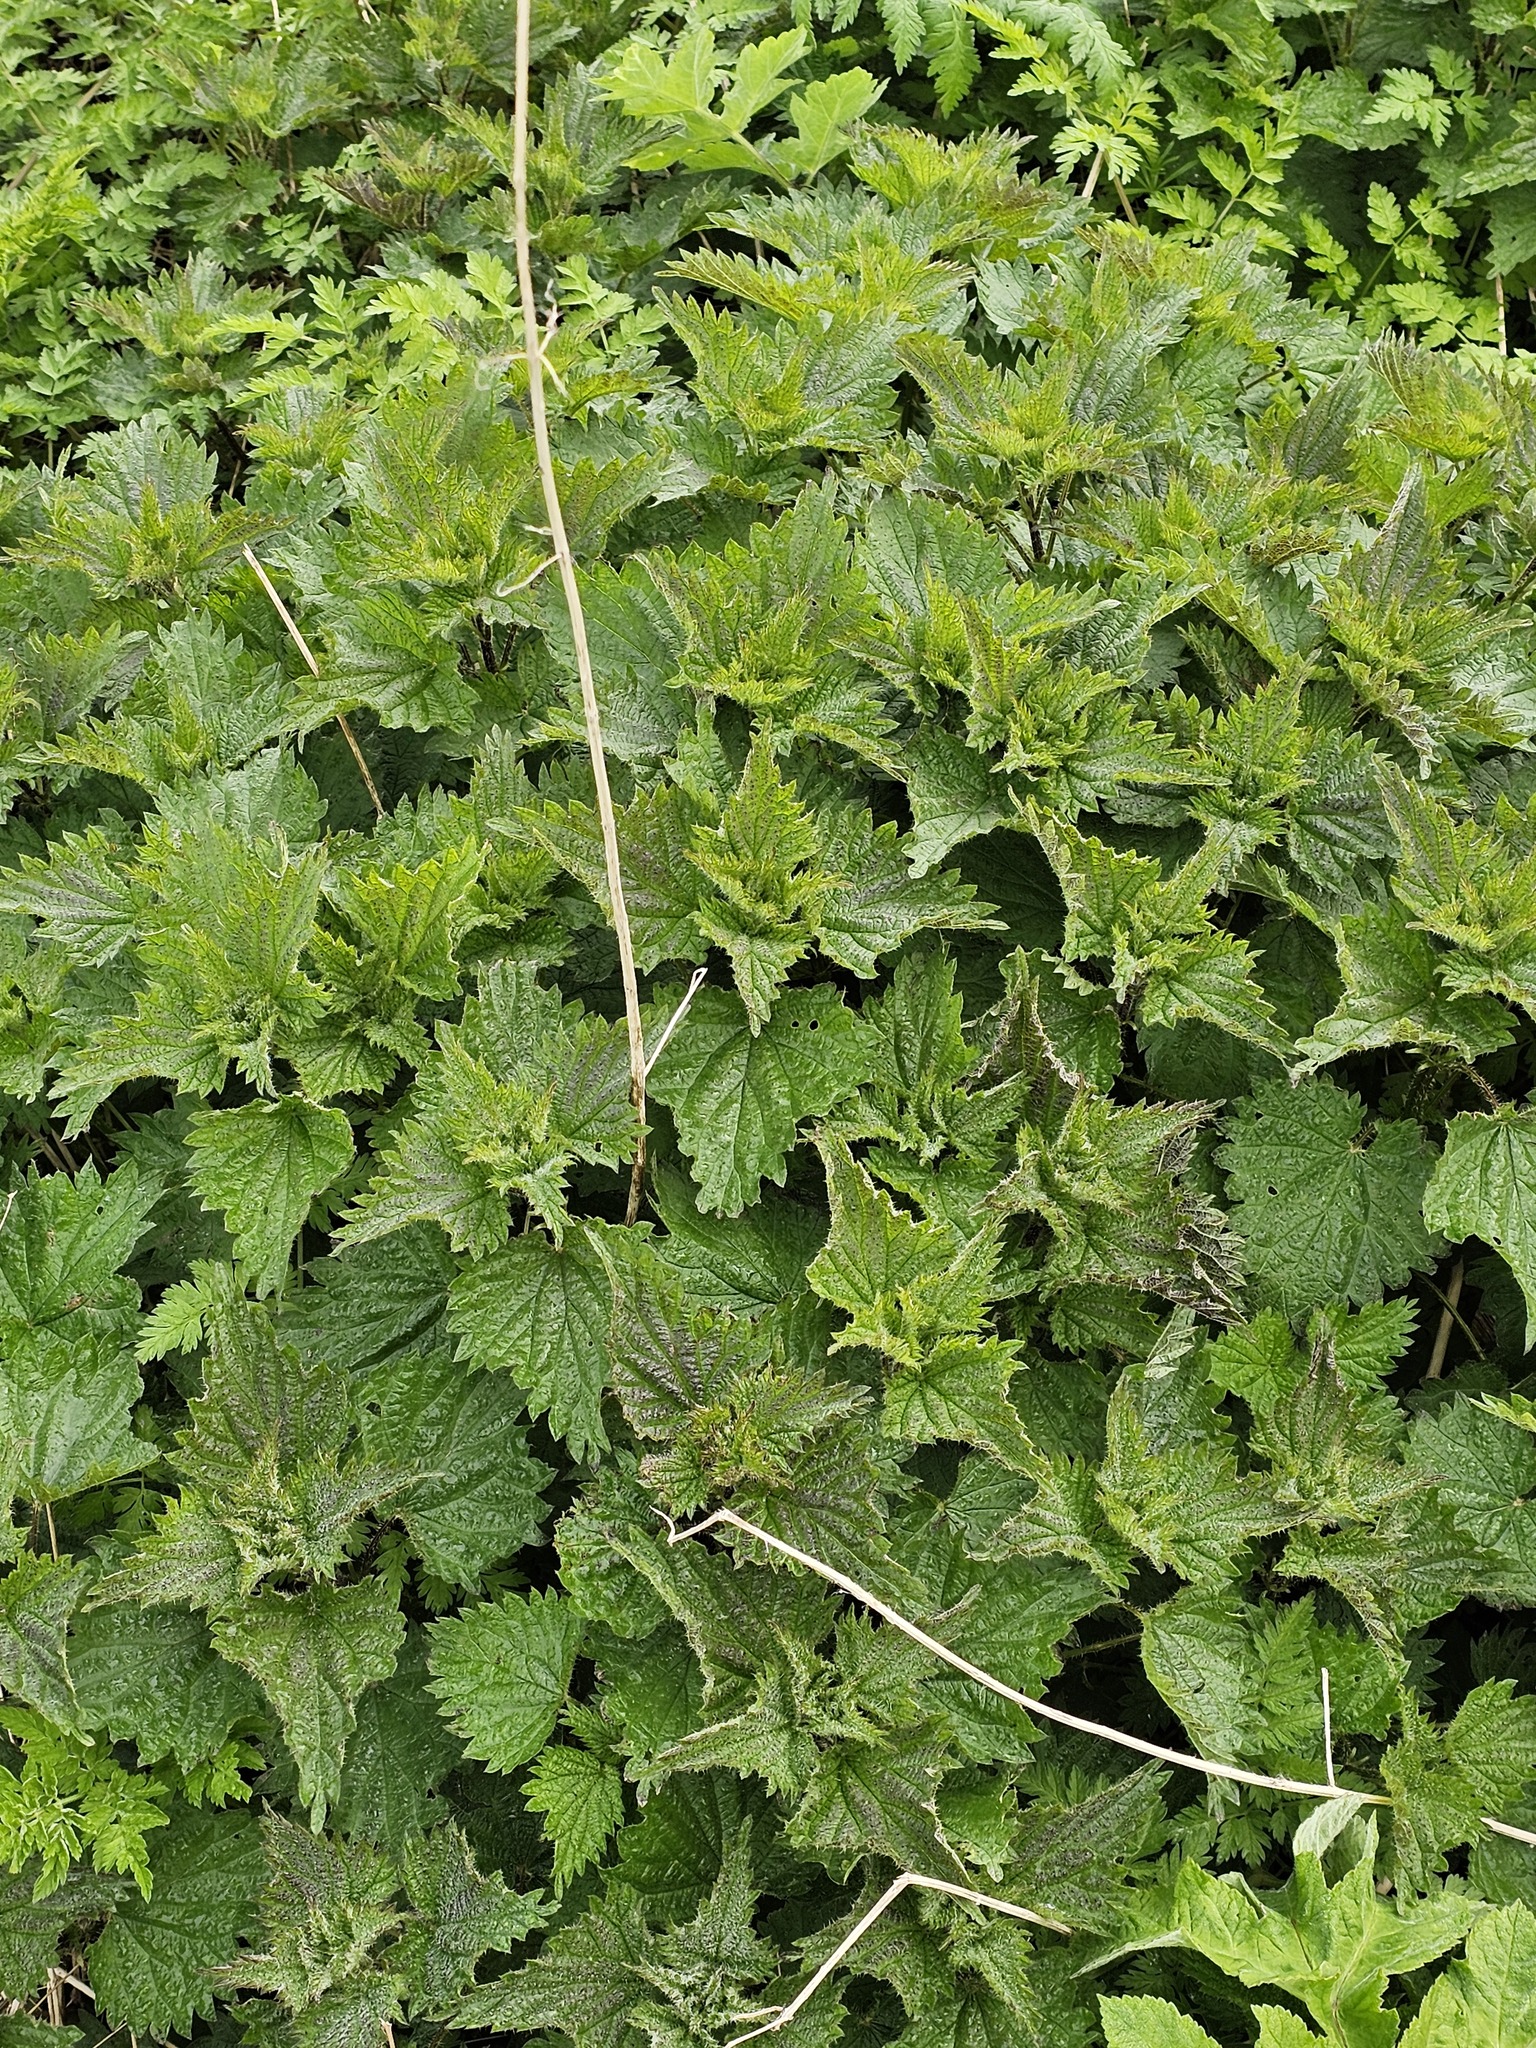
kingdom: Plantae
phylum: Tracheophyta
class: Magnoliopsida
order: Rosales
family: Urticaceae
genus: Urtica
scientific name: Urtica dioica
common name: Common nettle
